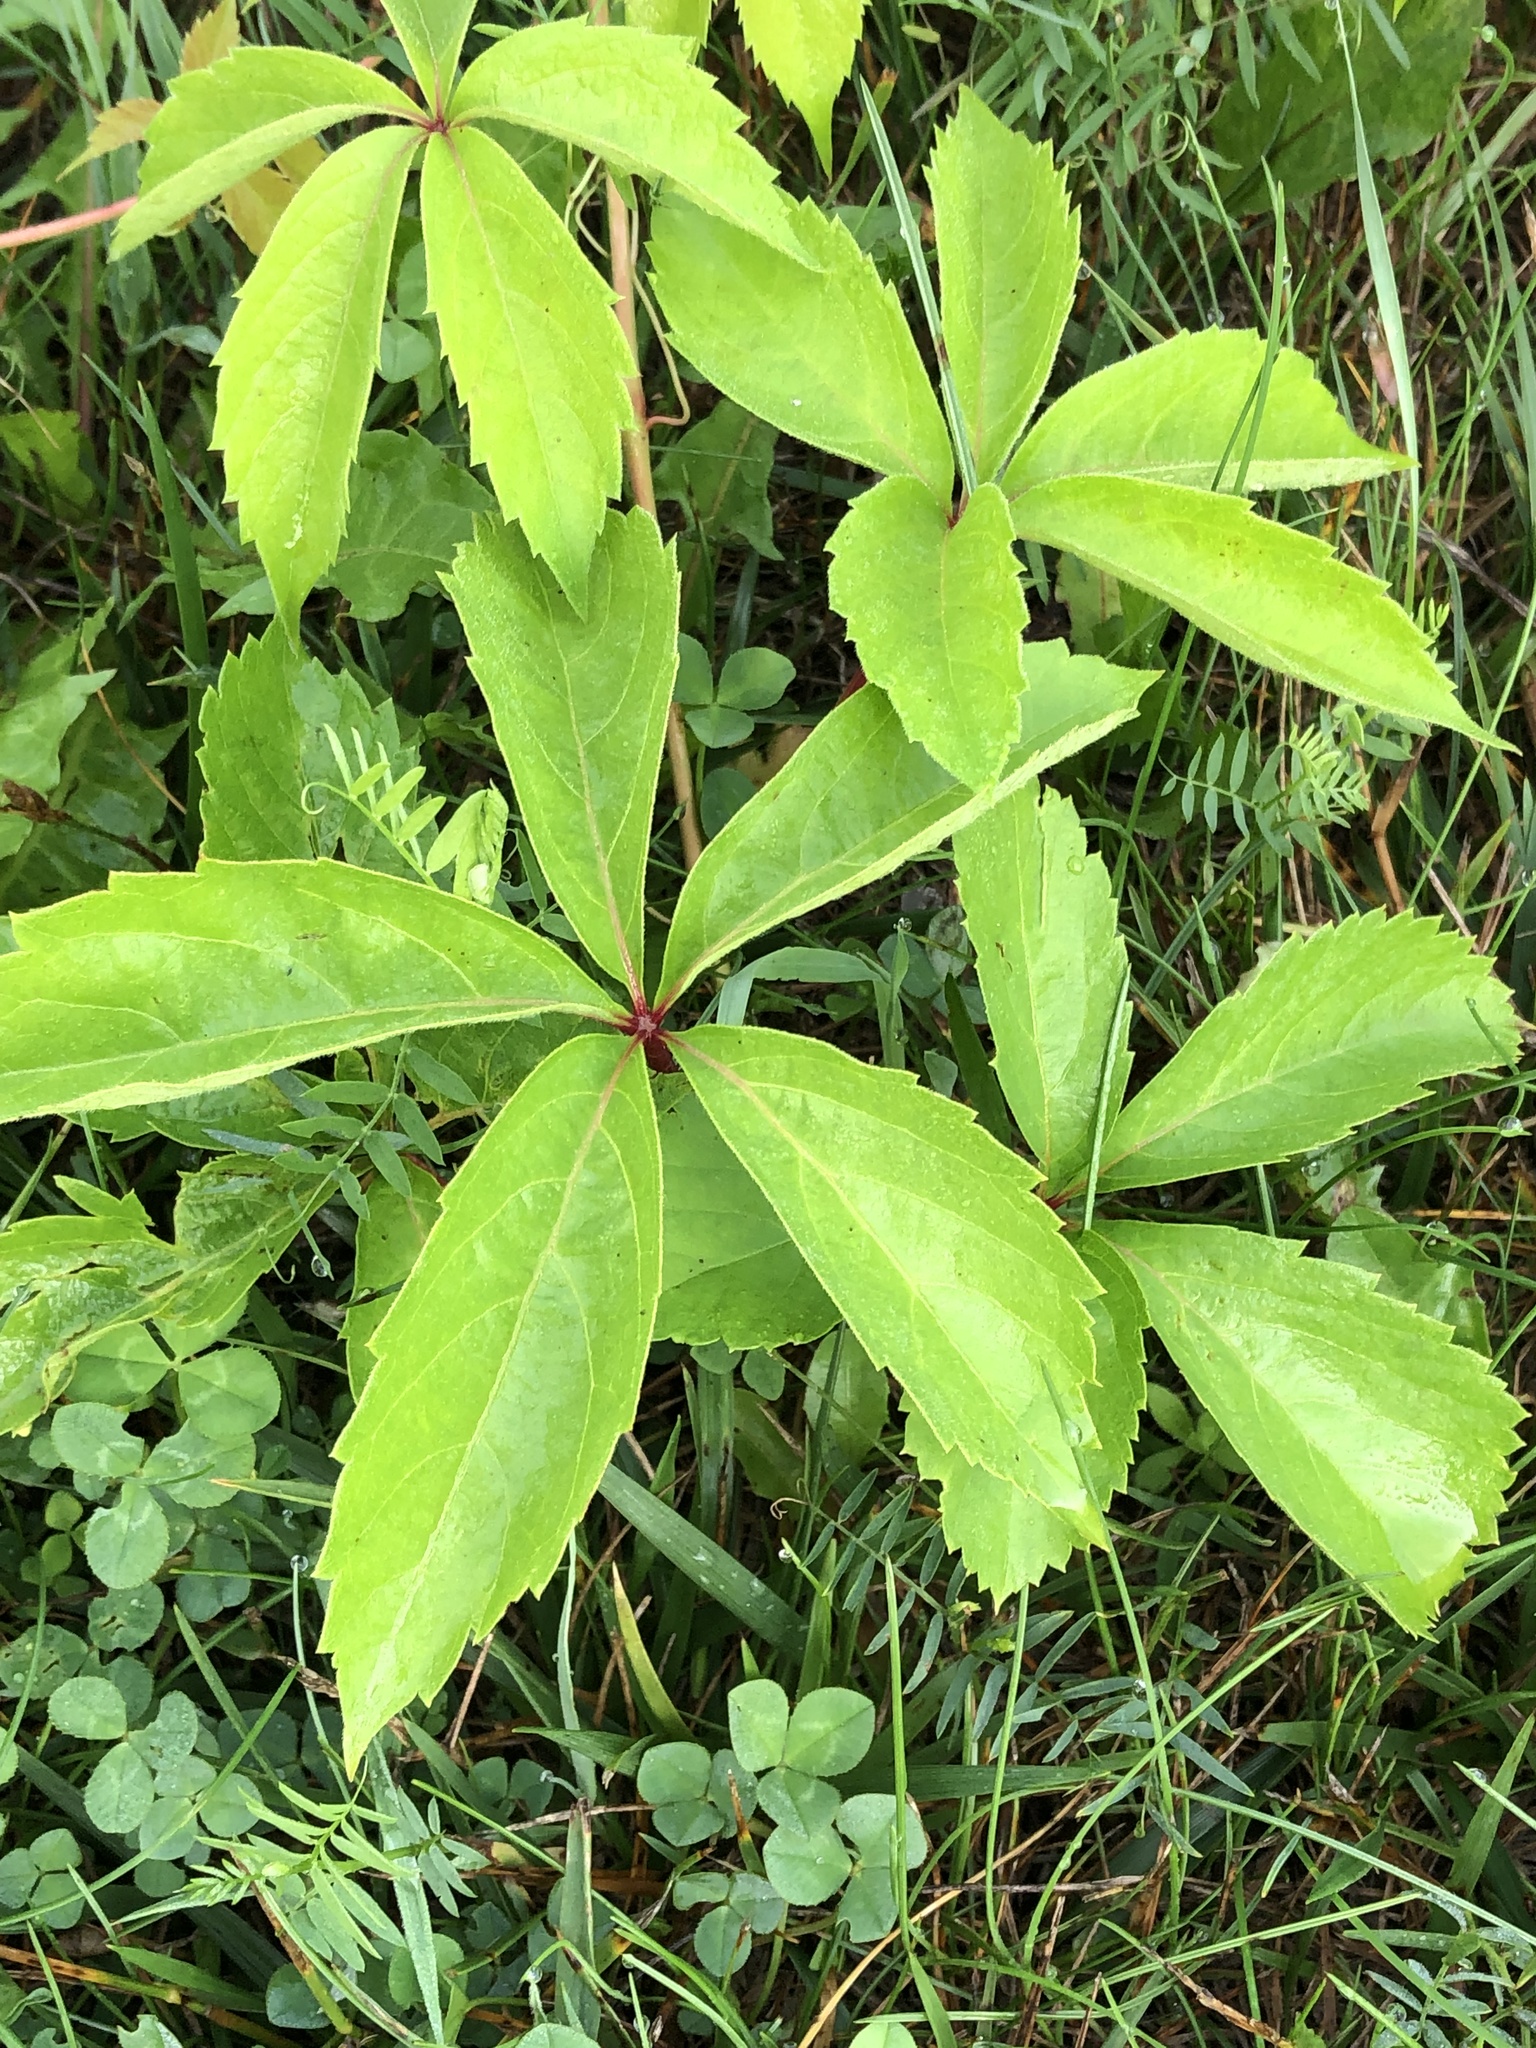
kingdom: Plantae
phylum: Tracheophyta
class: Magnoliopsida
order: Vitales
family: Vitaceae
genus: Parthenocissus
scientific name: Parthenocissus quinquefolia
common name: Virginia-creeper
